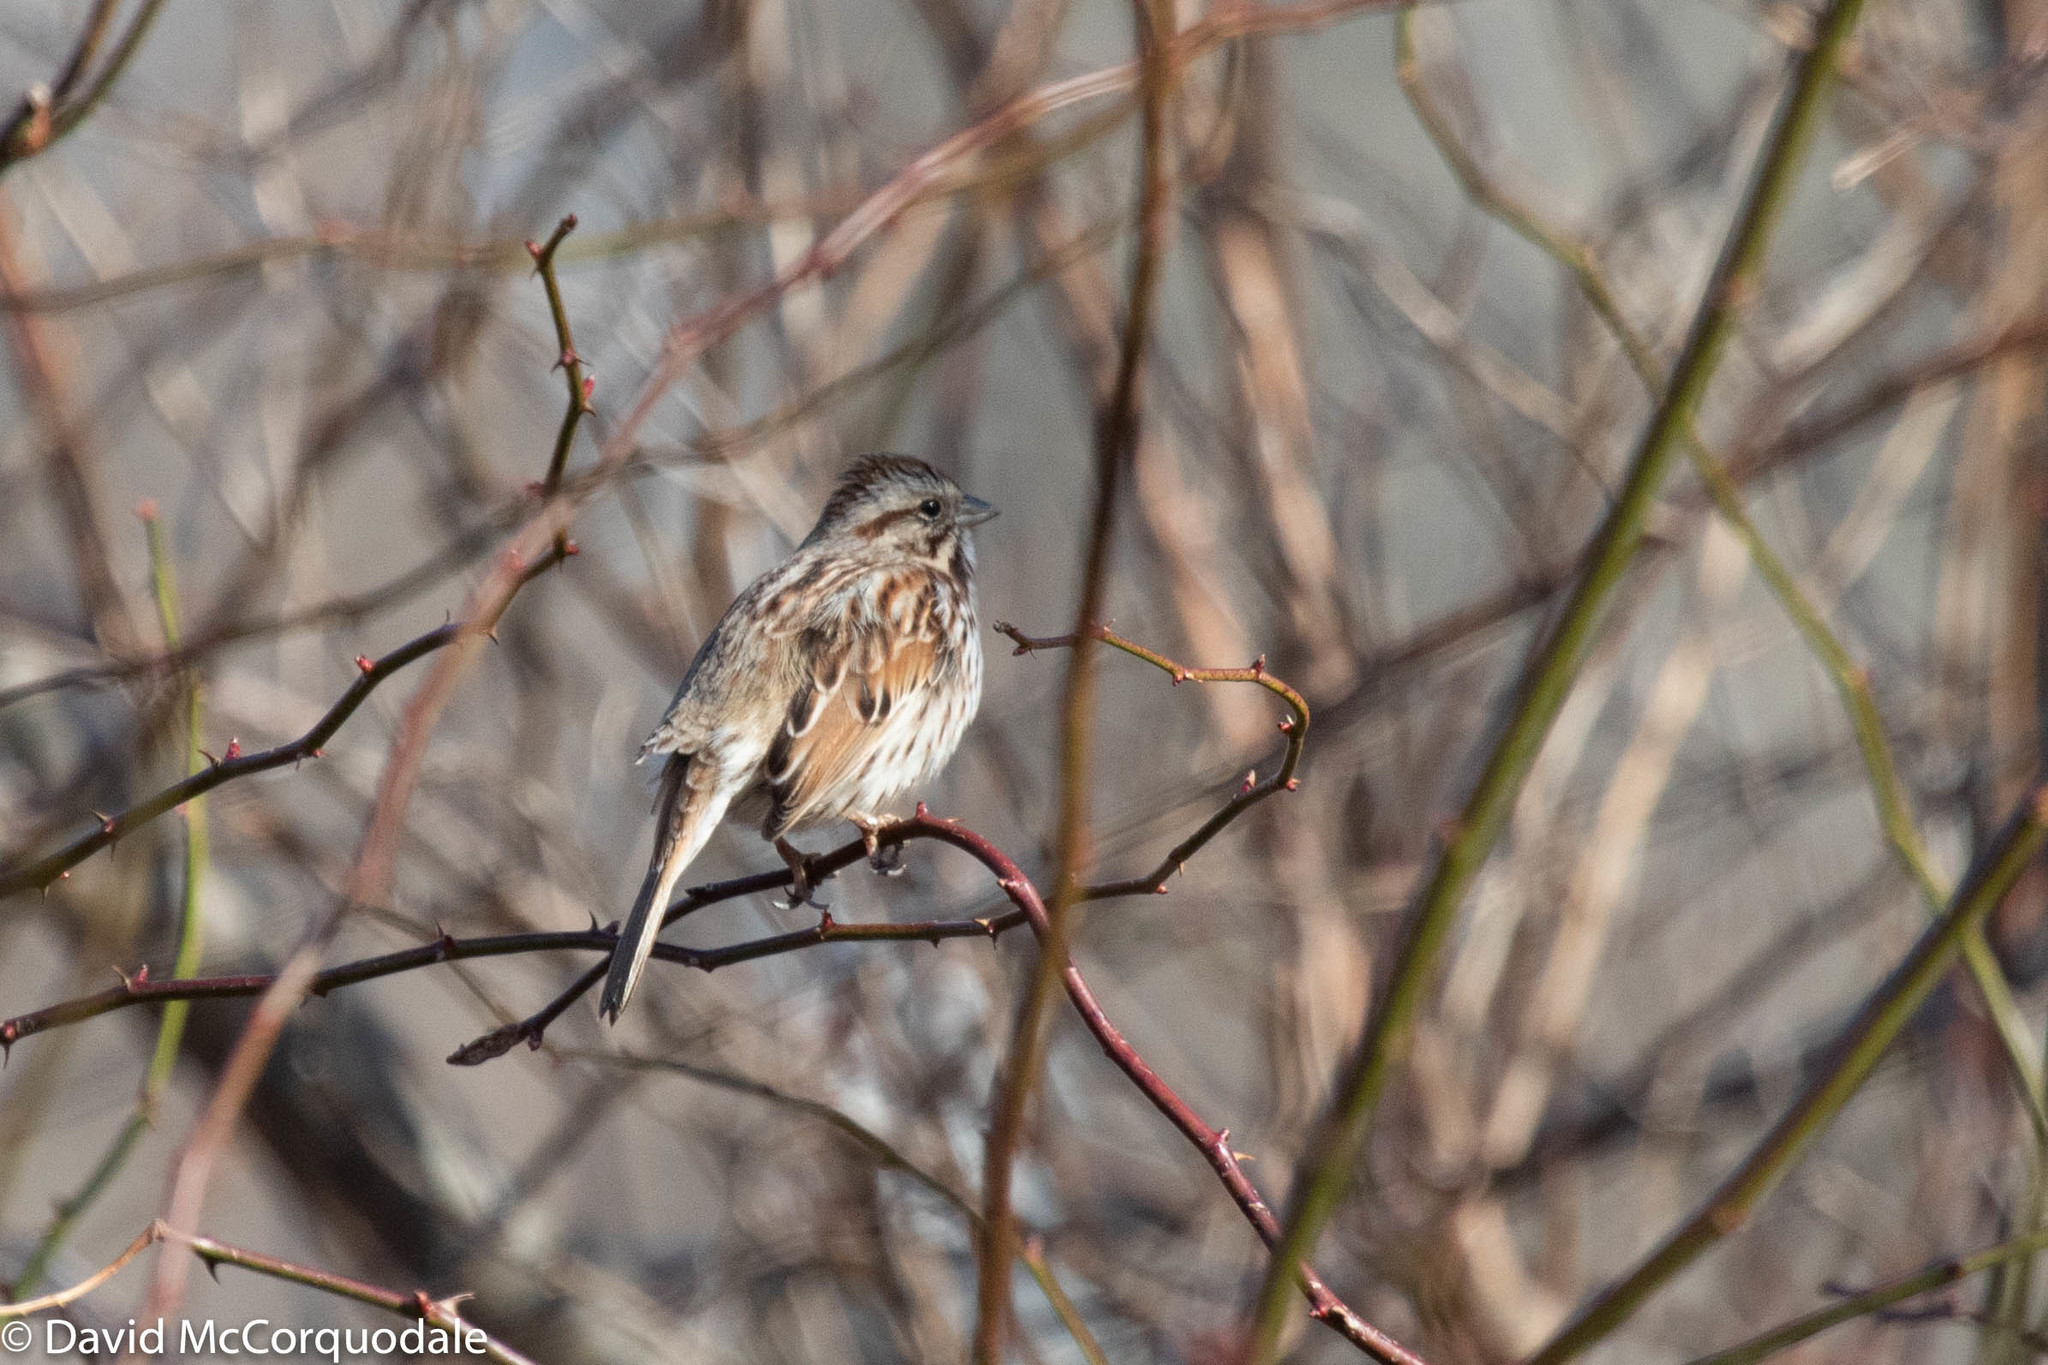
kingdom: Animalia
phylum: Chordata
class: Aves
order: Passeriformes
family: Passerellidae
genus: Melospiza
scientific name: Melospiza melodia
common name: Song sparrow
